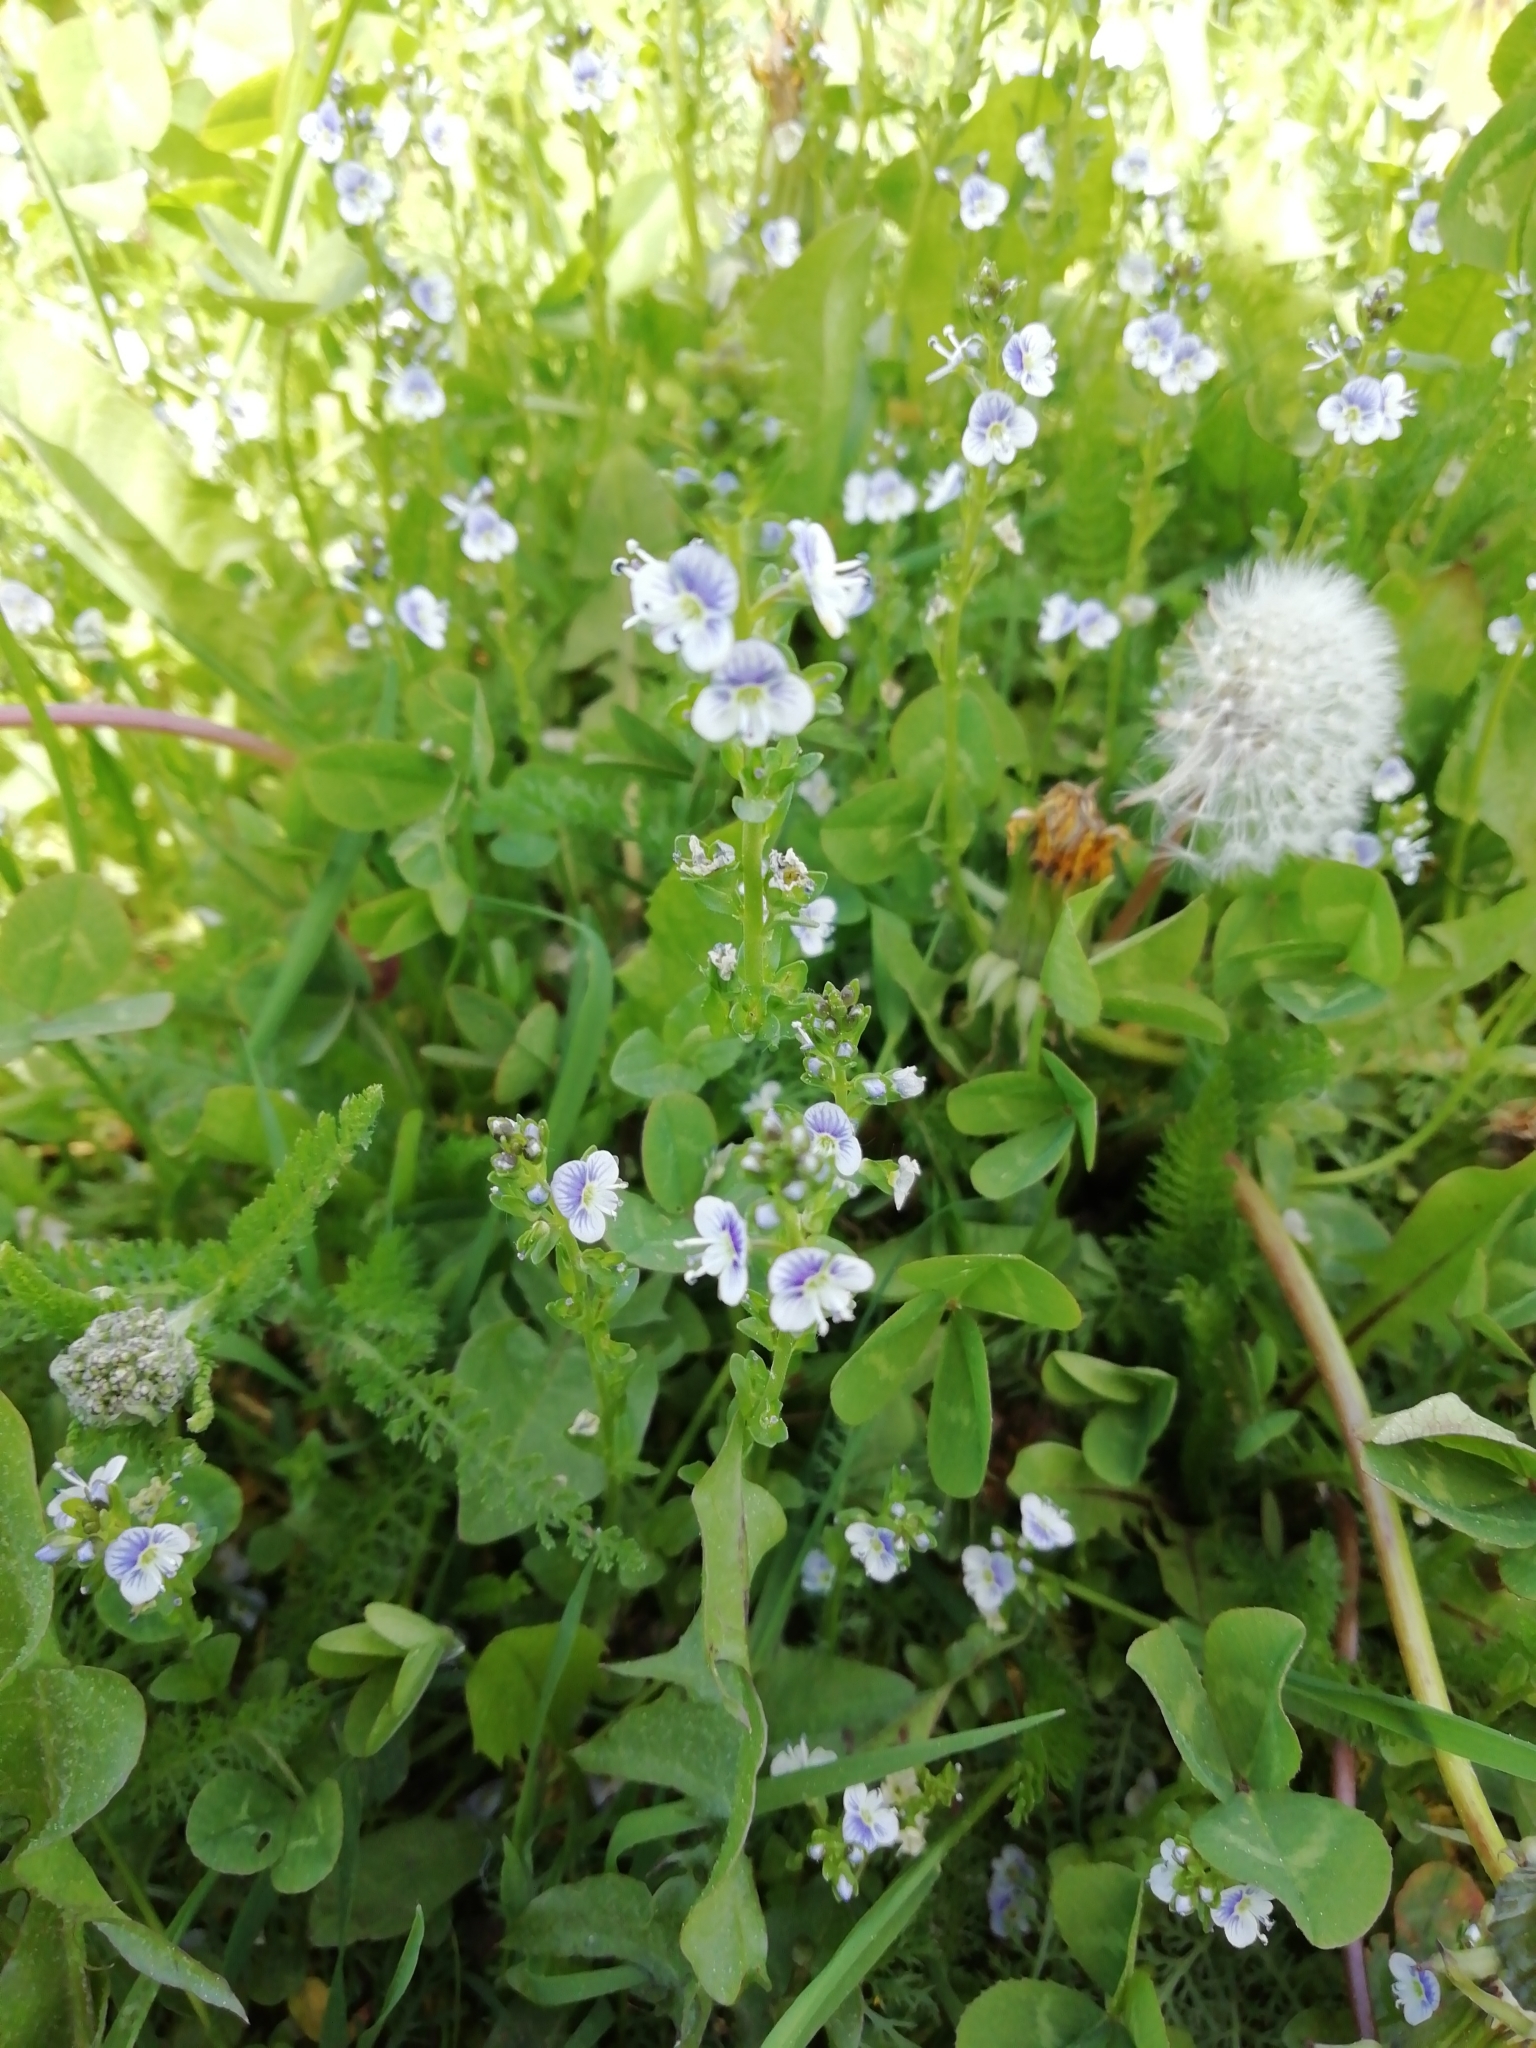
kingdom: Plantae
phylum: Tracheophyta
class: Magnoliopsida
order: Lamiales
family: Plantaginaceae
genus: Veronica
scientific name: Veronica serpyllifolia
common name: Thyme-leaved speedwell
